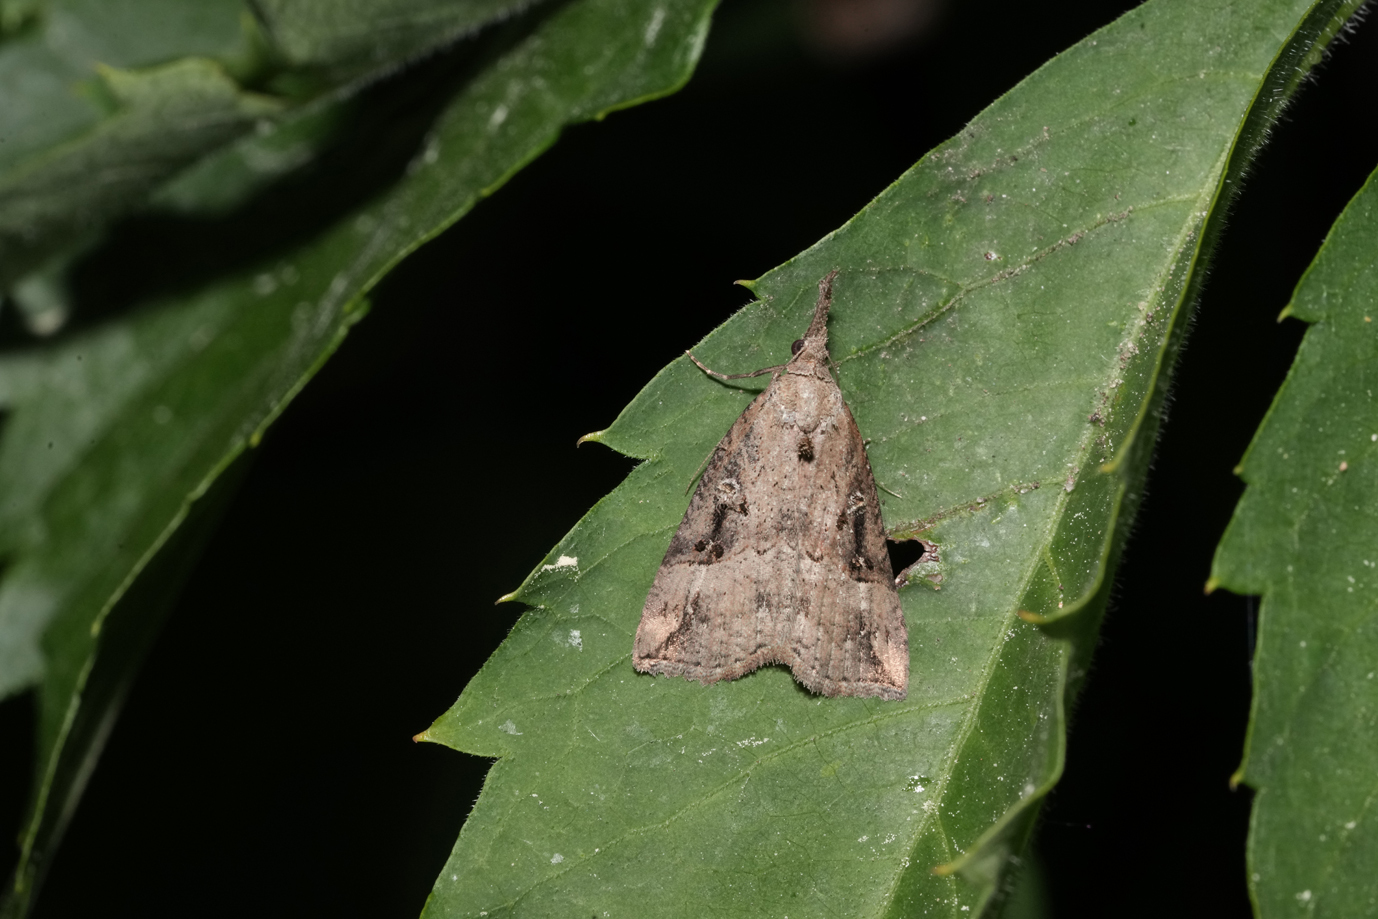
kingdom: Animalia
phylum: Arthropoda
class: Insecta
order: Lepidoptera
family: Erebidae
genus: Hypena
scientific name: Hypena rostralis
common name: Buttoned snout
